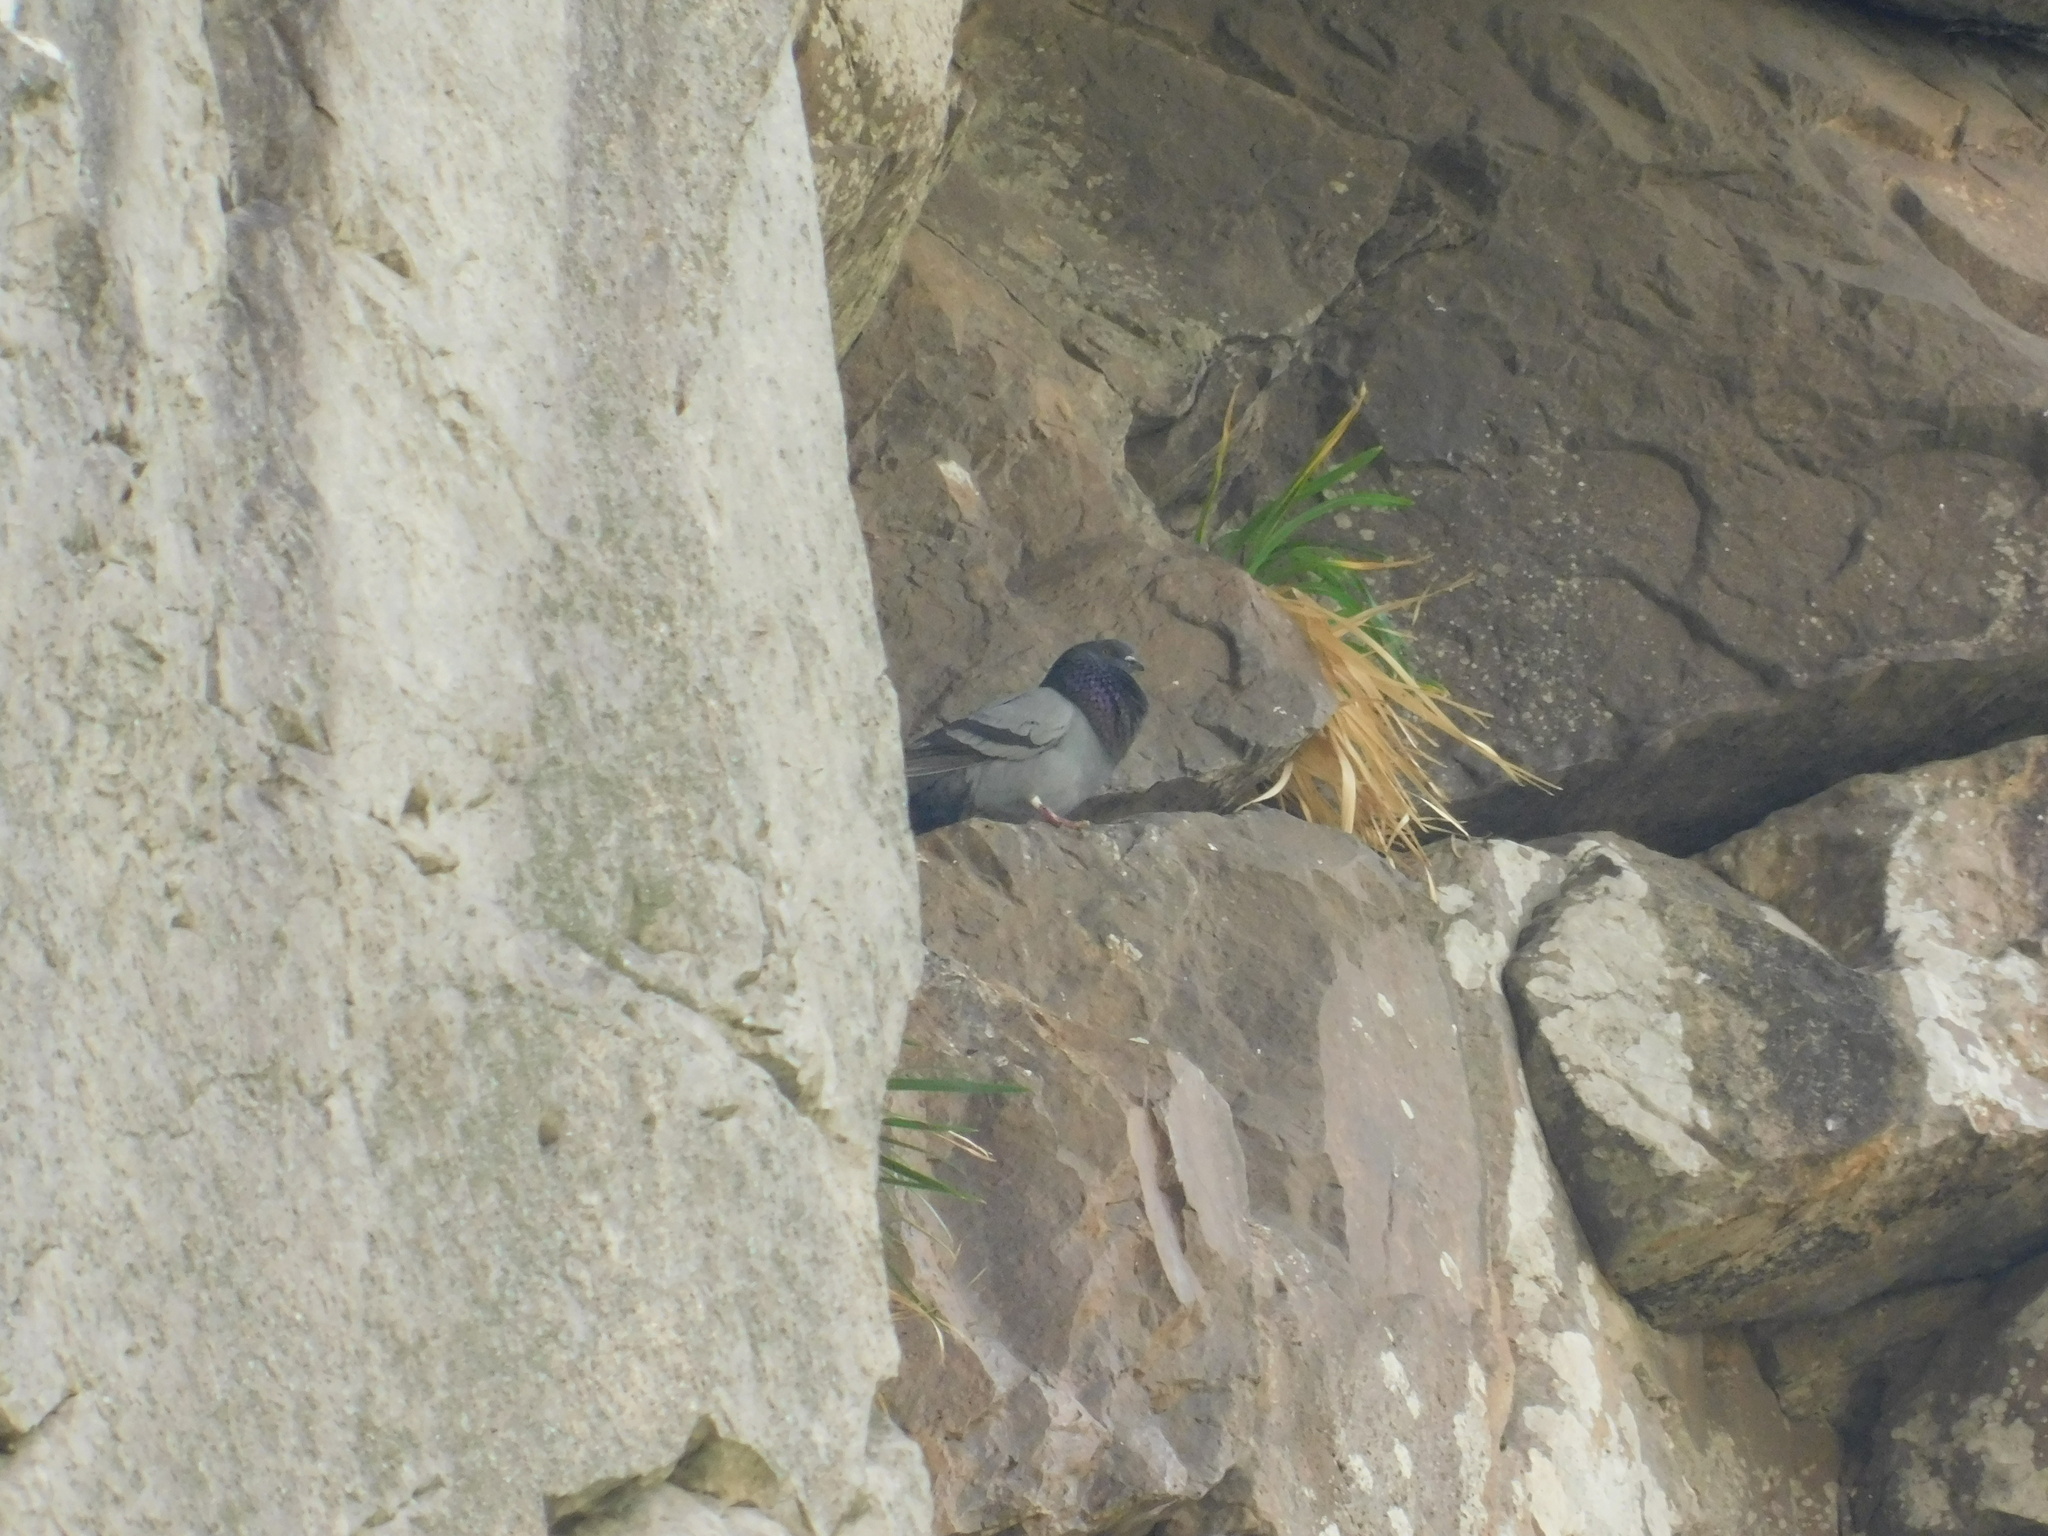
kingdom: Animalia
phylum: Chordata
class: Aves
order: Columbiformes
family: Columbidae
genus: Columba
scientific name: Columba livia
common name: Rock pigeon
